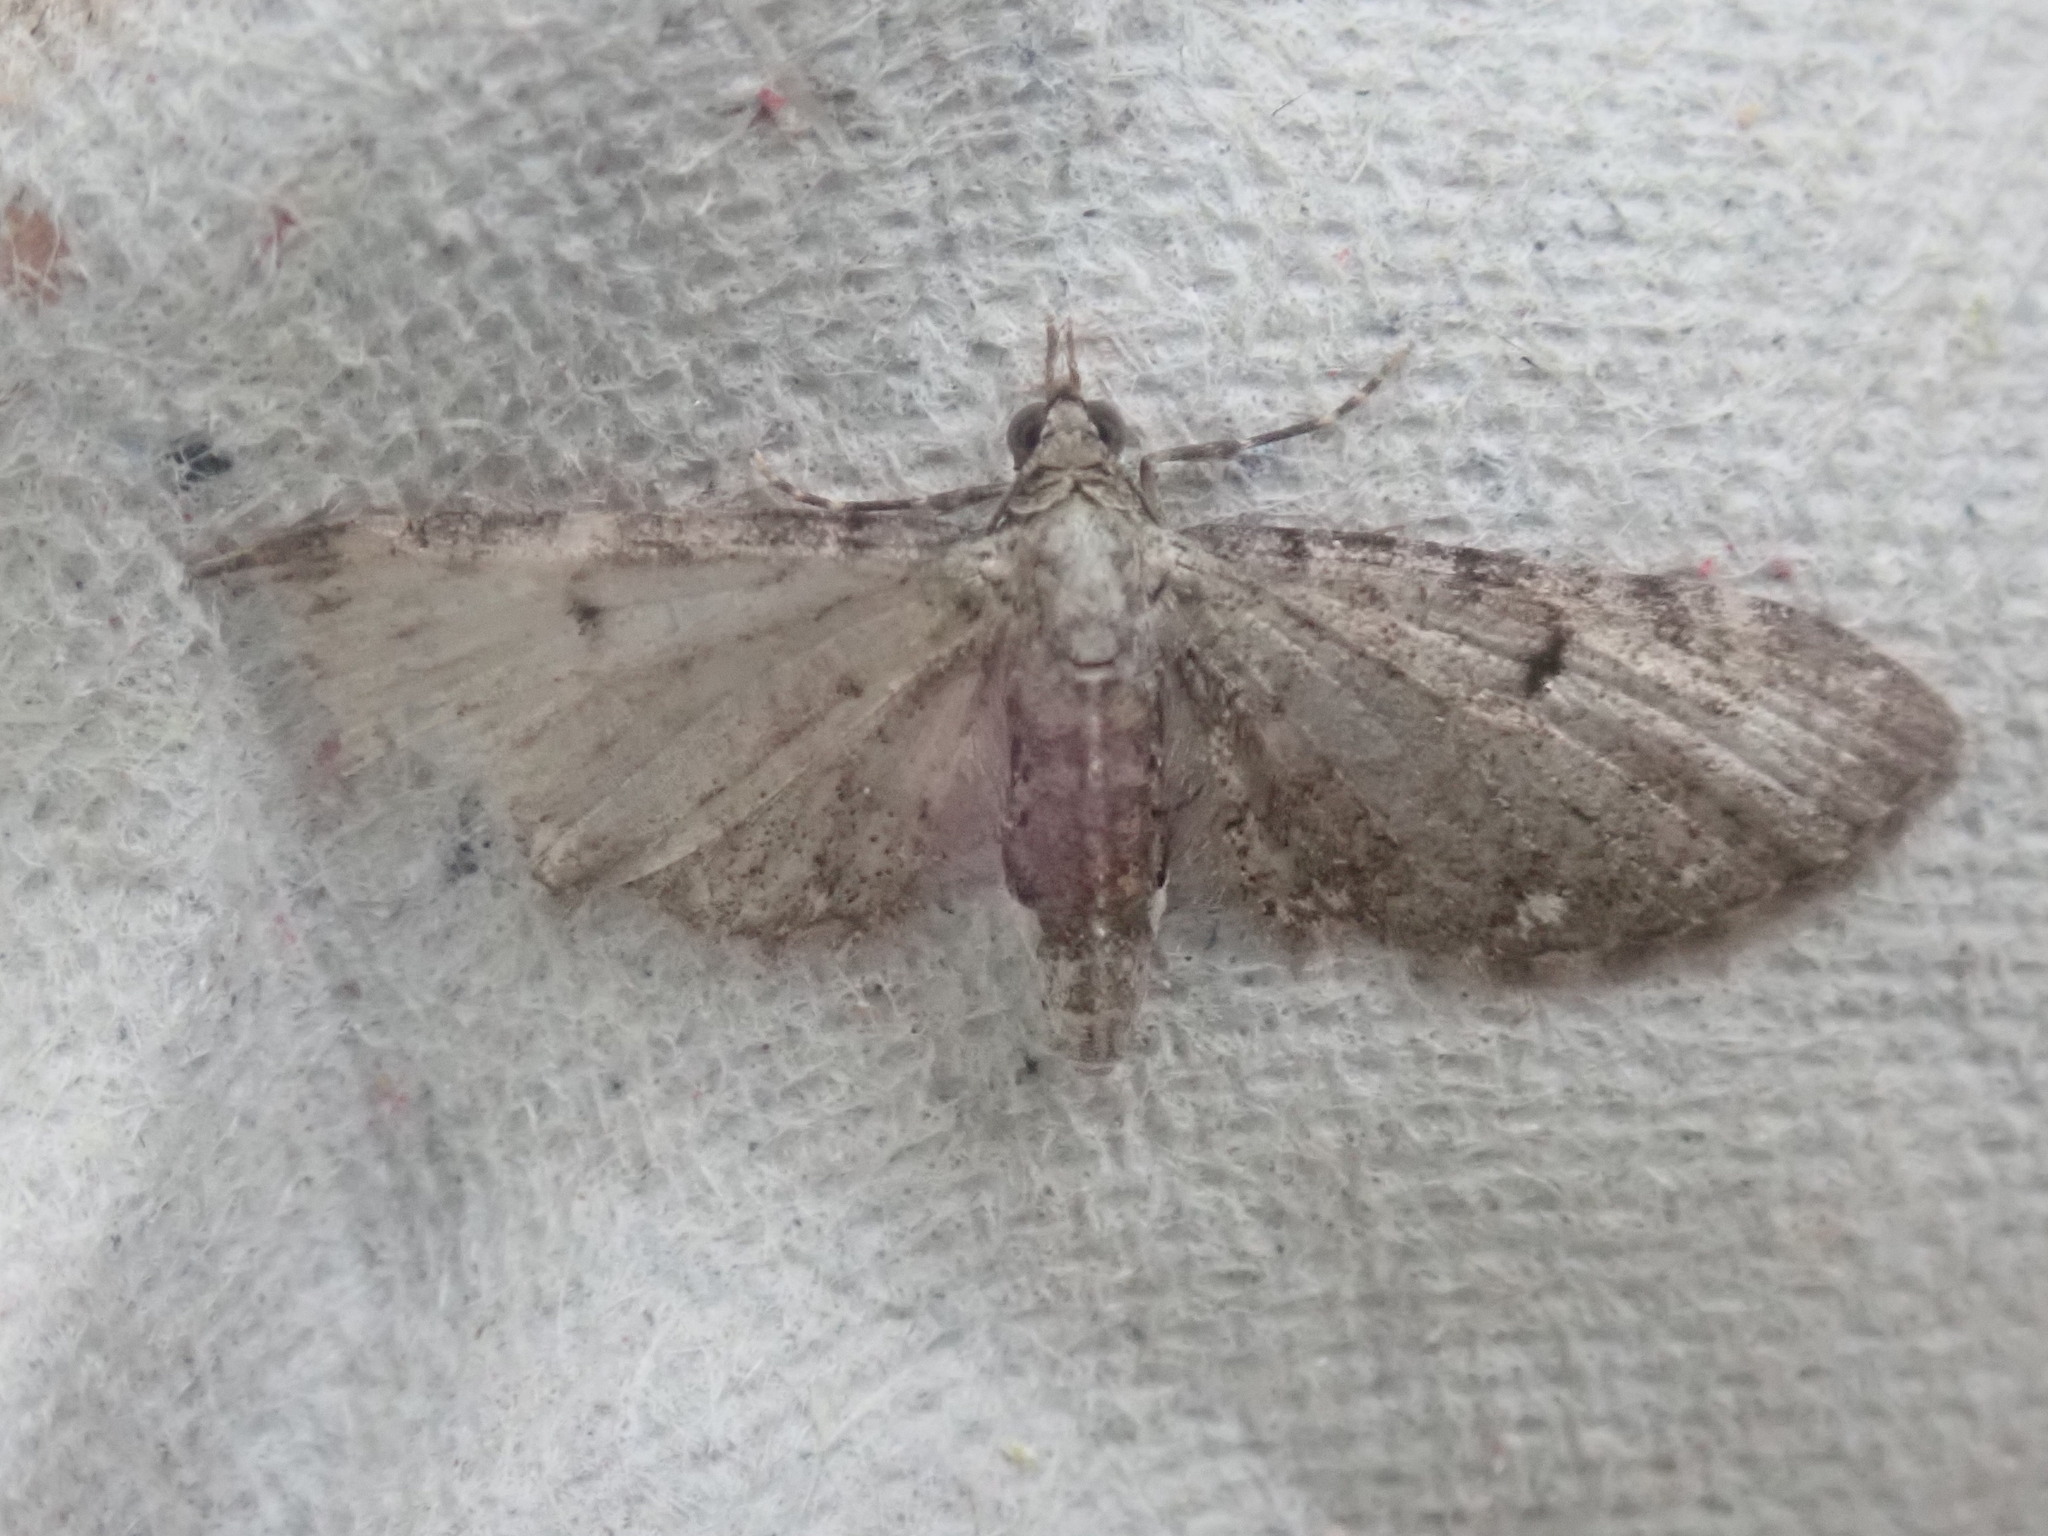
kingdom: Animalia
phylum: Arthropoda
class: Insecta
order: Lepidoptera
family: Geometridae
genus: Eupithecia
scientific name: Eupithecia
